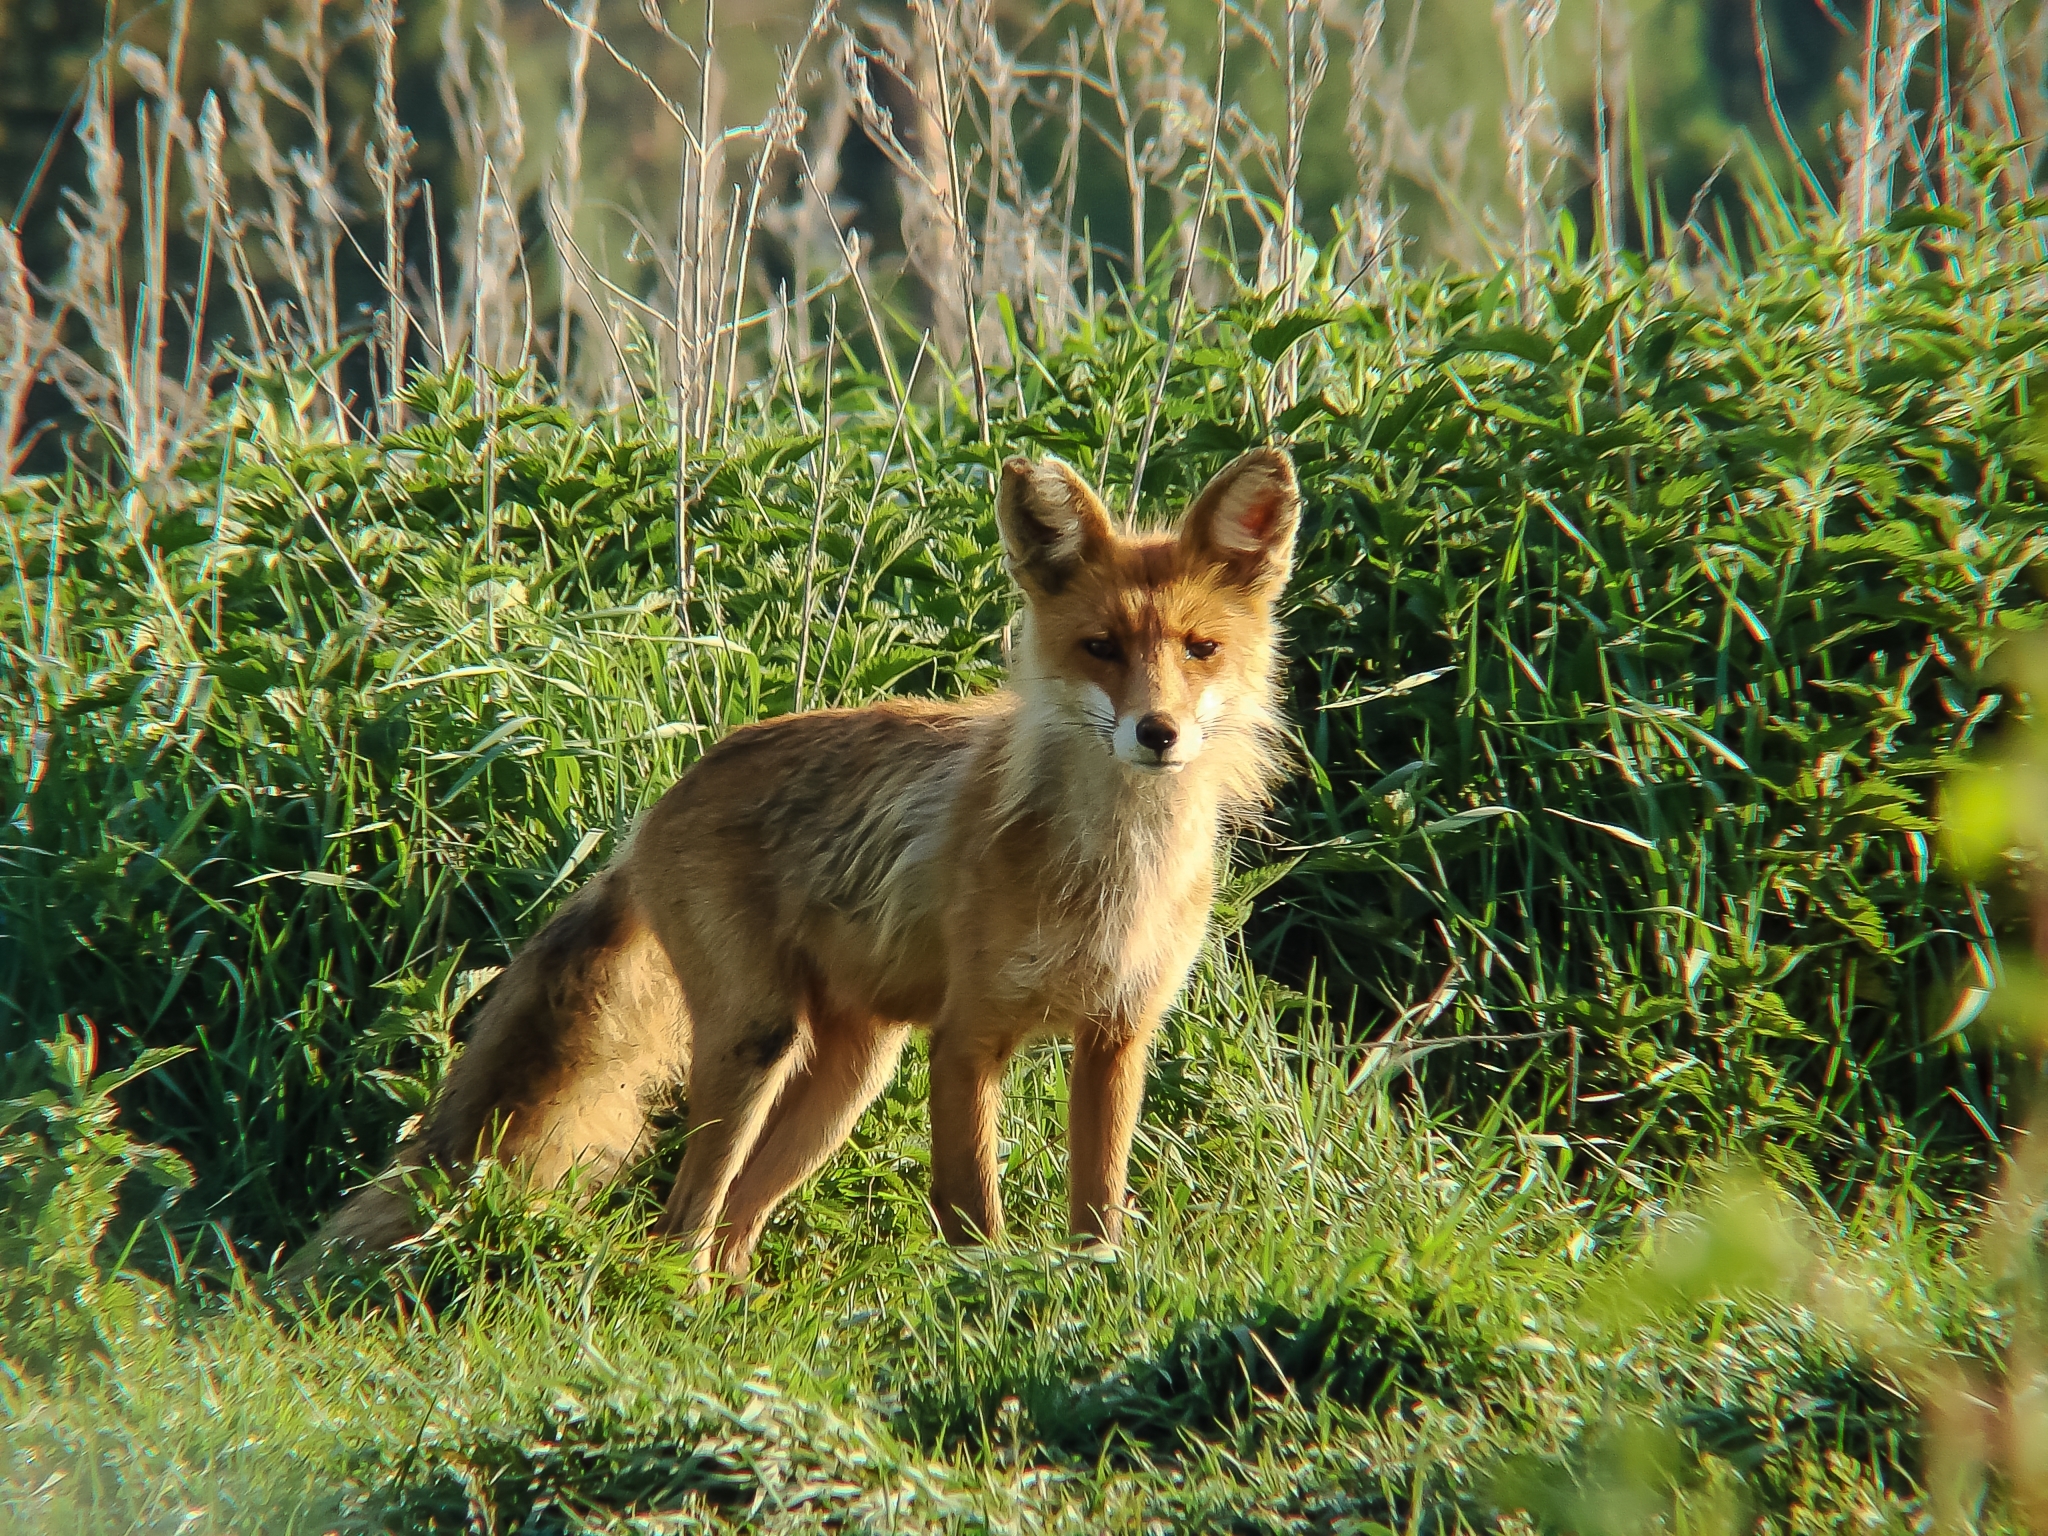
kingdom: Animalia
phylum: Chordata
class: Mammalia
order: Carnivora
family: Canidae
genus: Vulpes
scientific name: Vulpes vulpes
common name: Red fox
